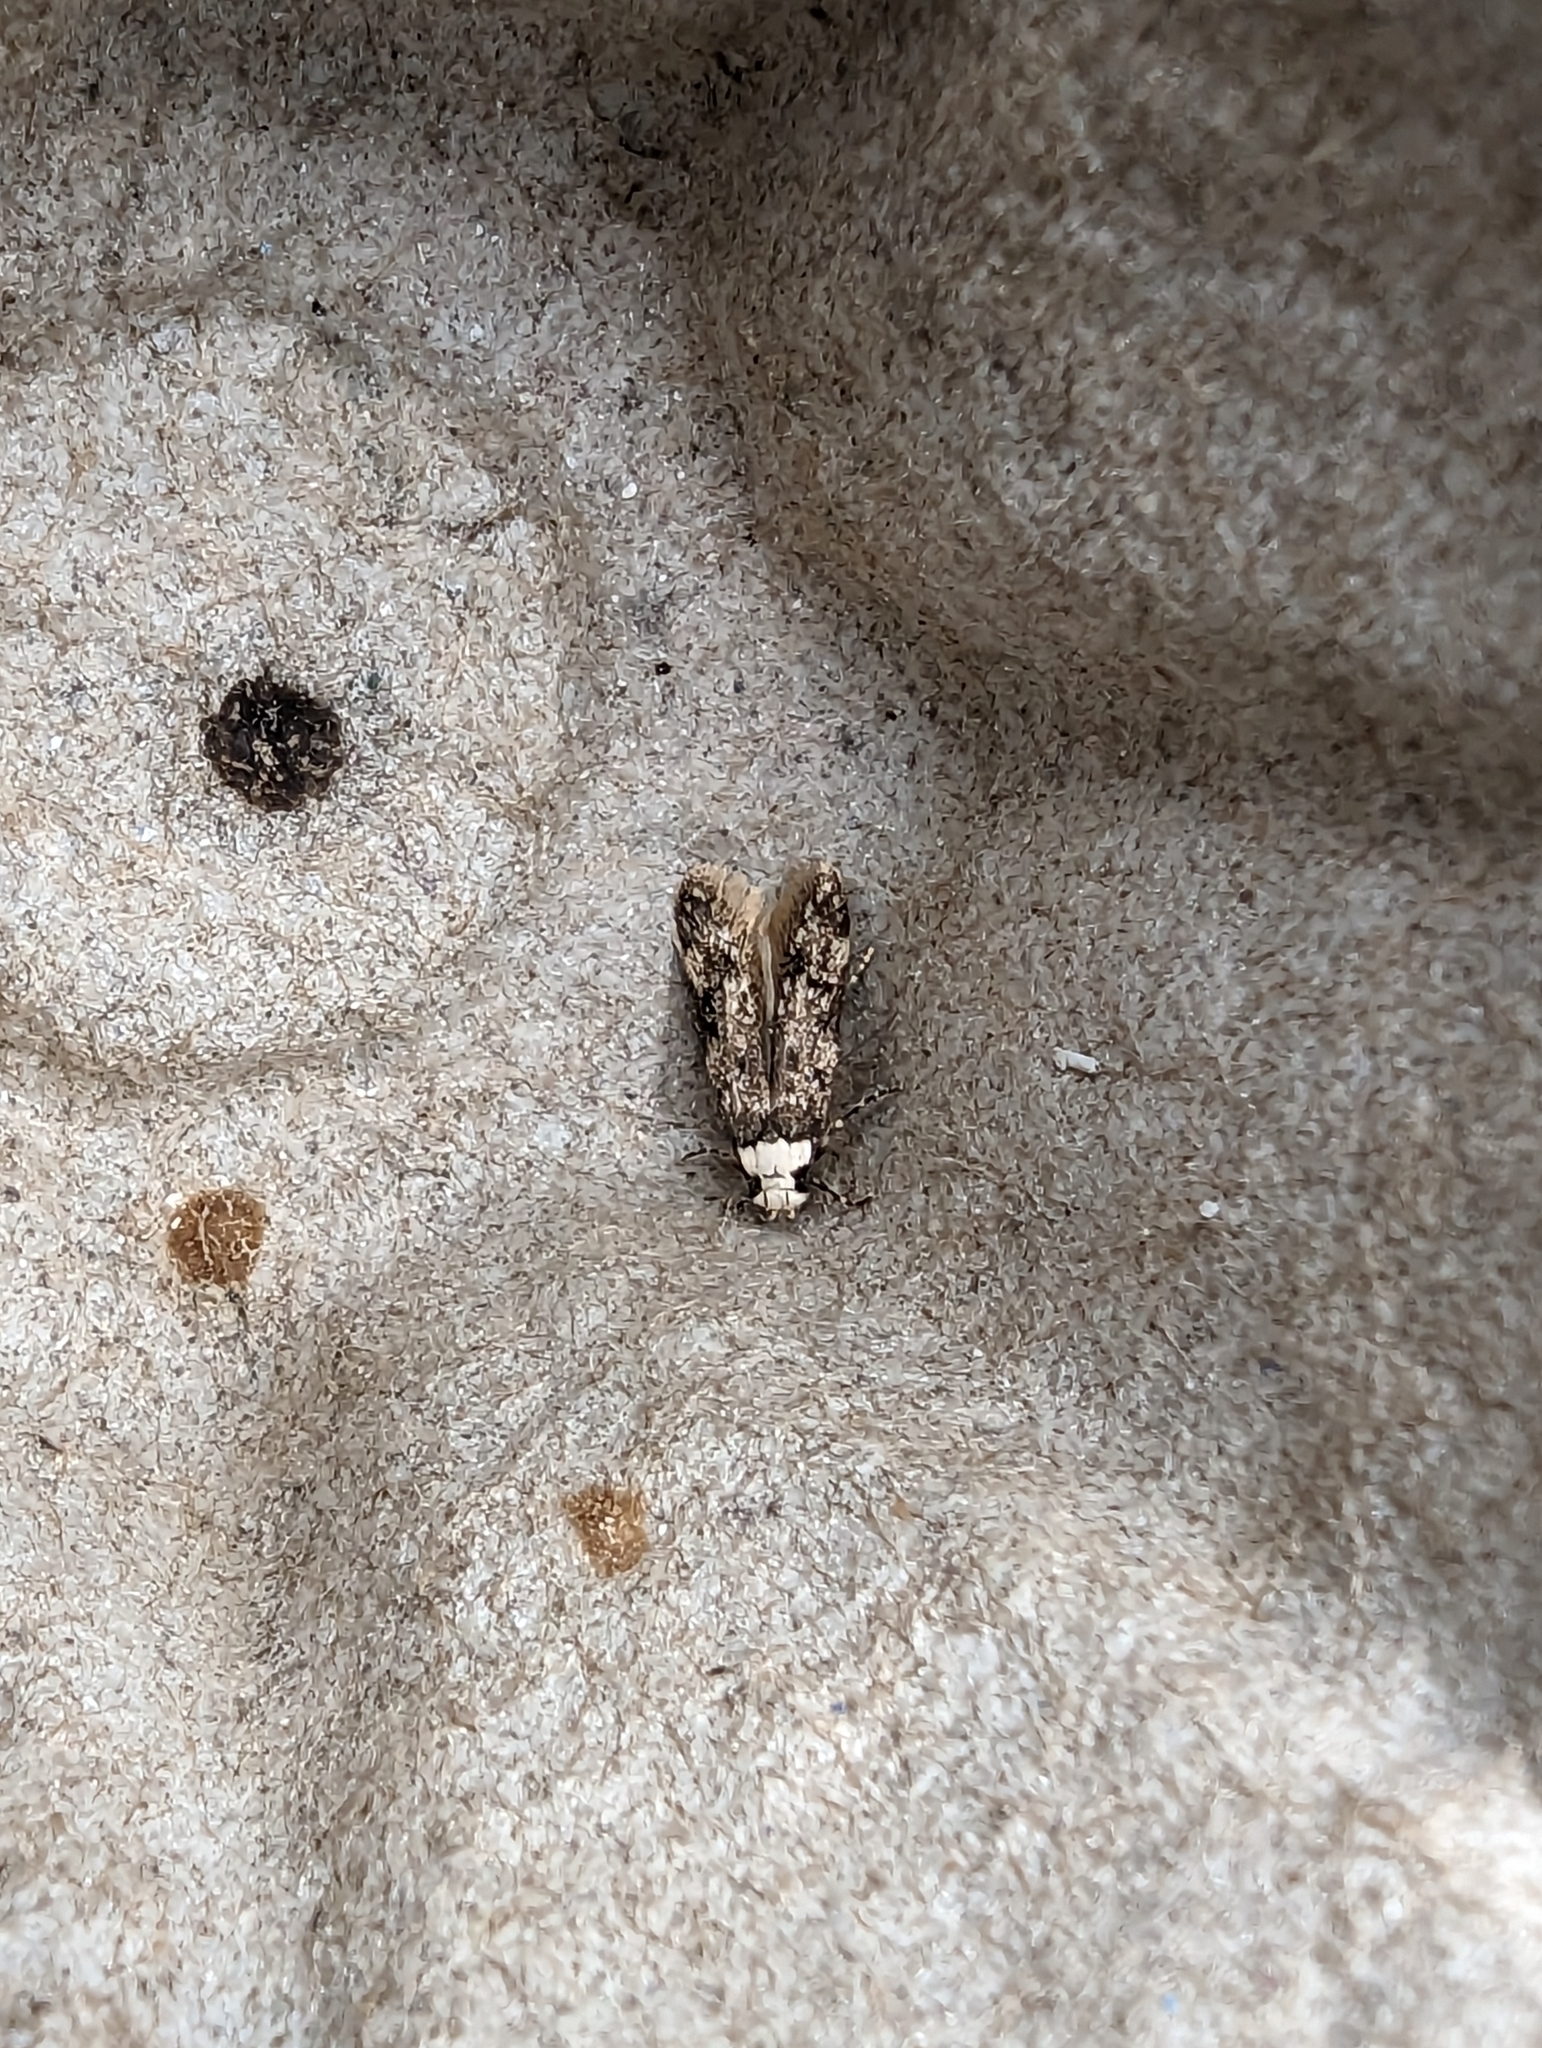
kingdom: Animalia
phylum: Arthropoda
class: Insecta
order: Lepidoptera
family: Oecophoridae
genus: Endrosis
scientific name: Endrosis sarcitrella
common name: White-shouldered house moth
